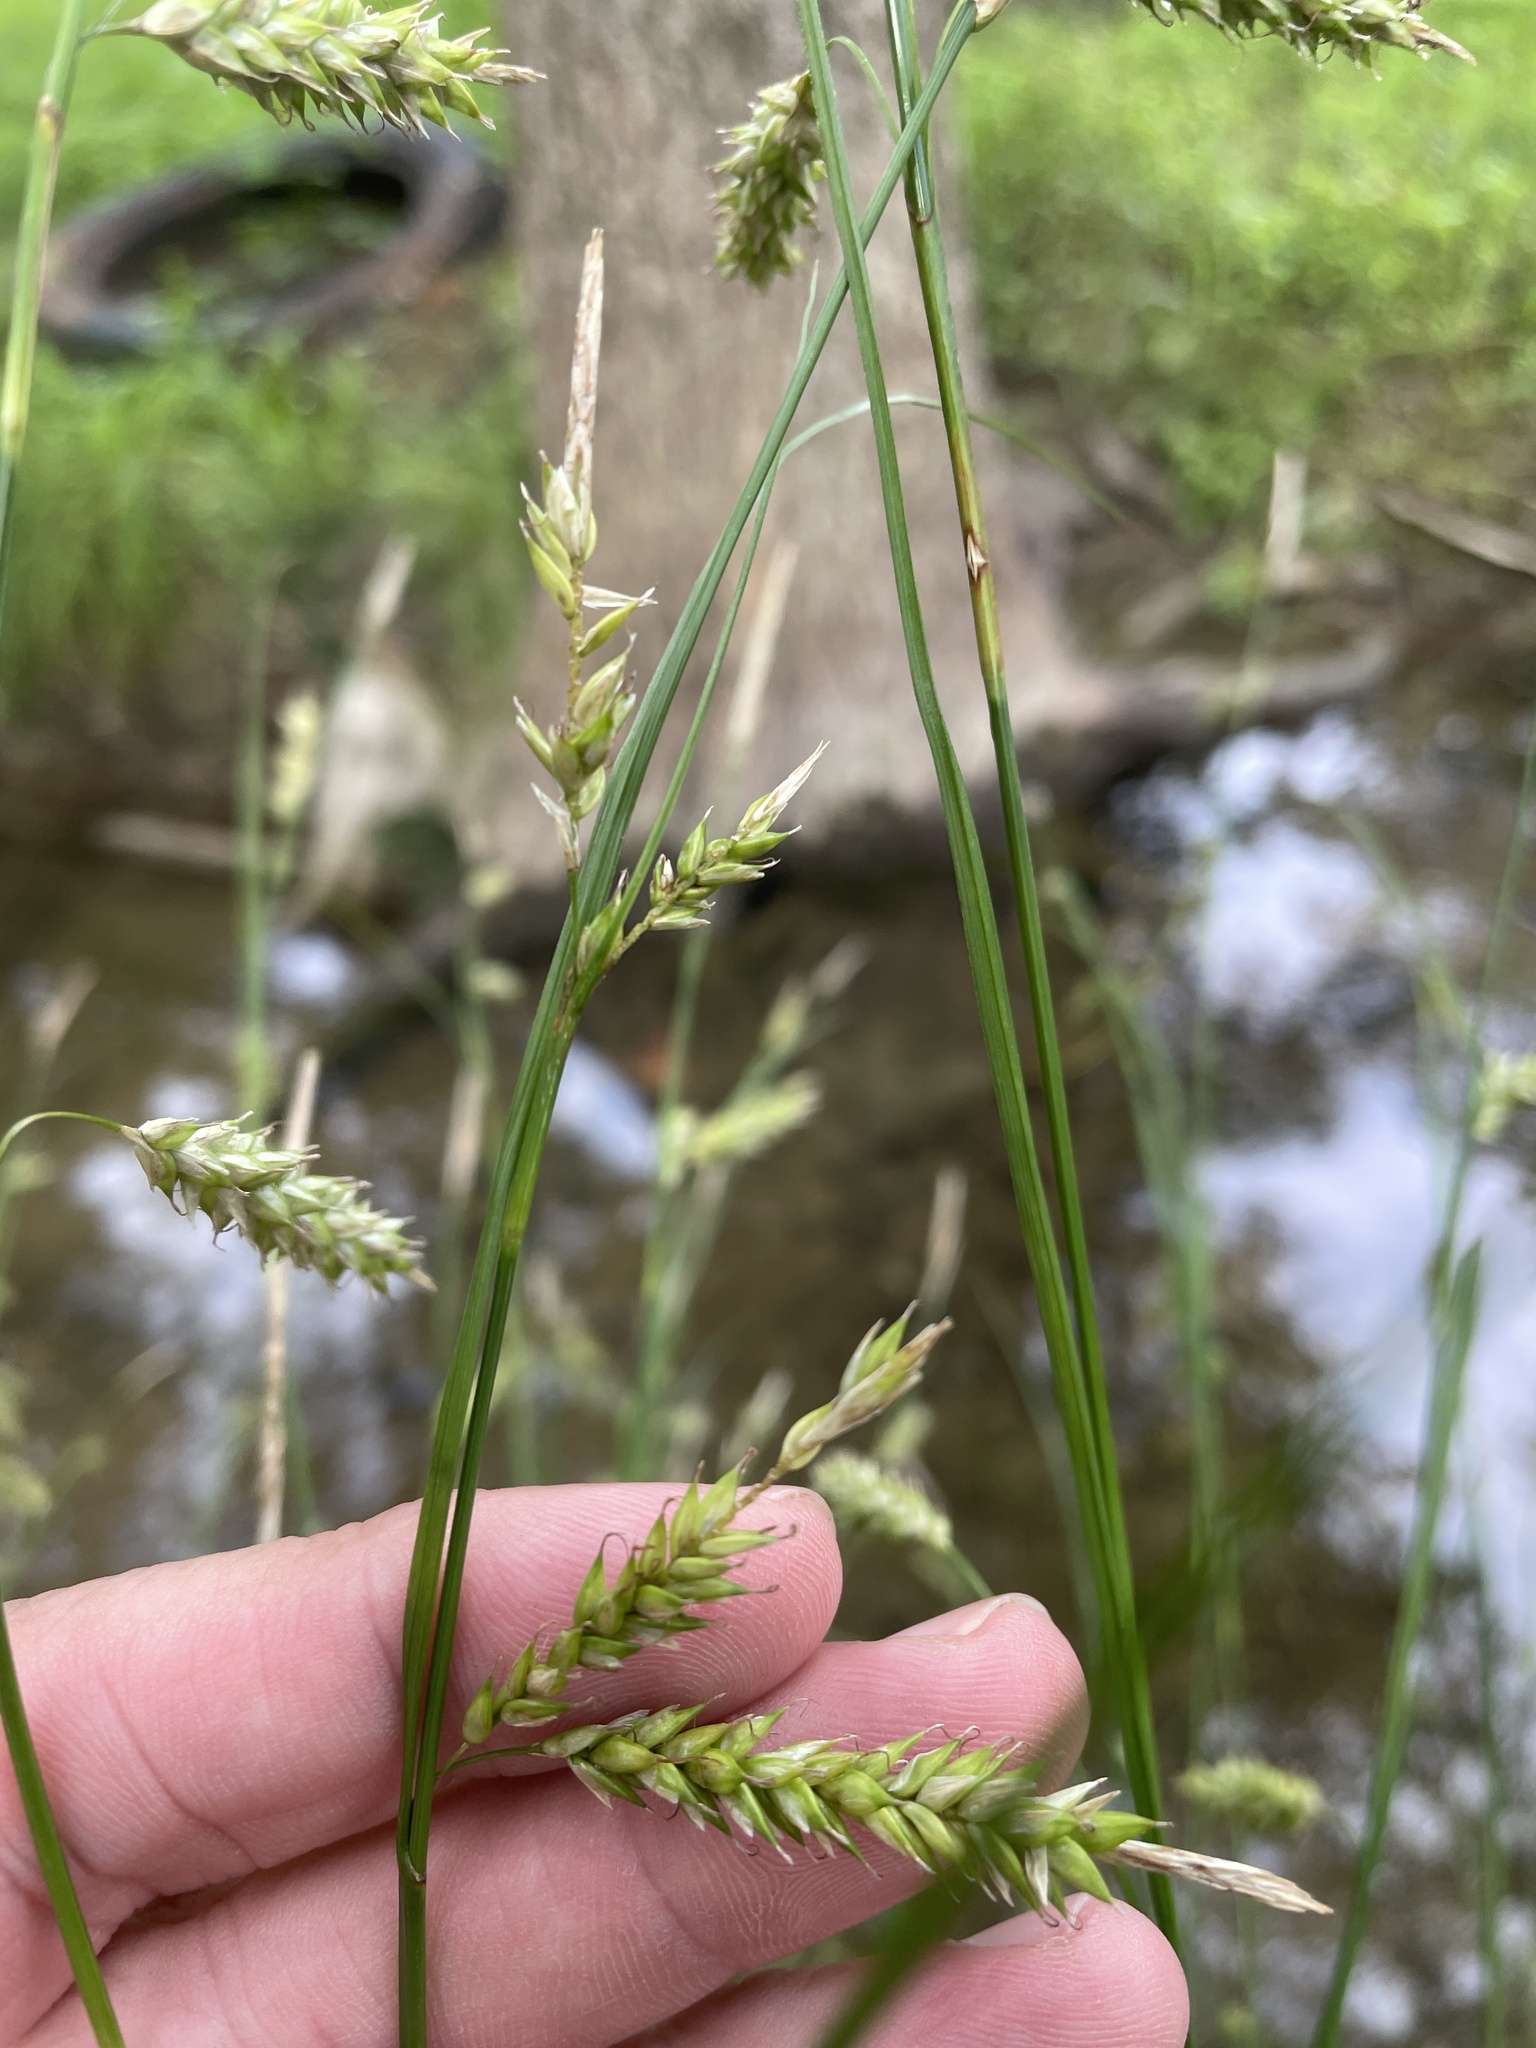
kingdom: Plantae
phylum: Tracheophyta
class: Liliopsida
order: Poales
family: Cyperaceae
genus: Carex
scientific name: Carex cherokeensis
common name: Cherokee sedge
